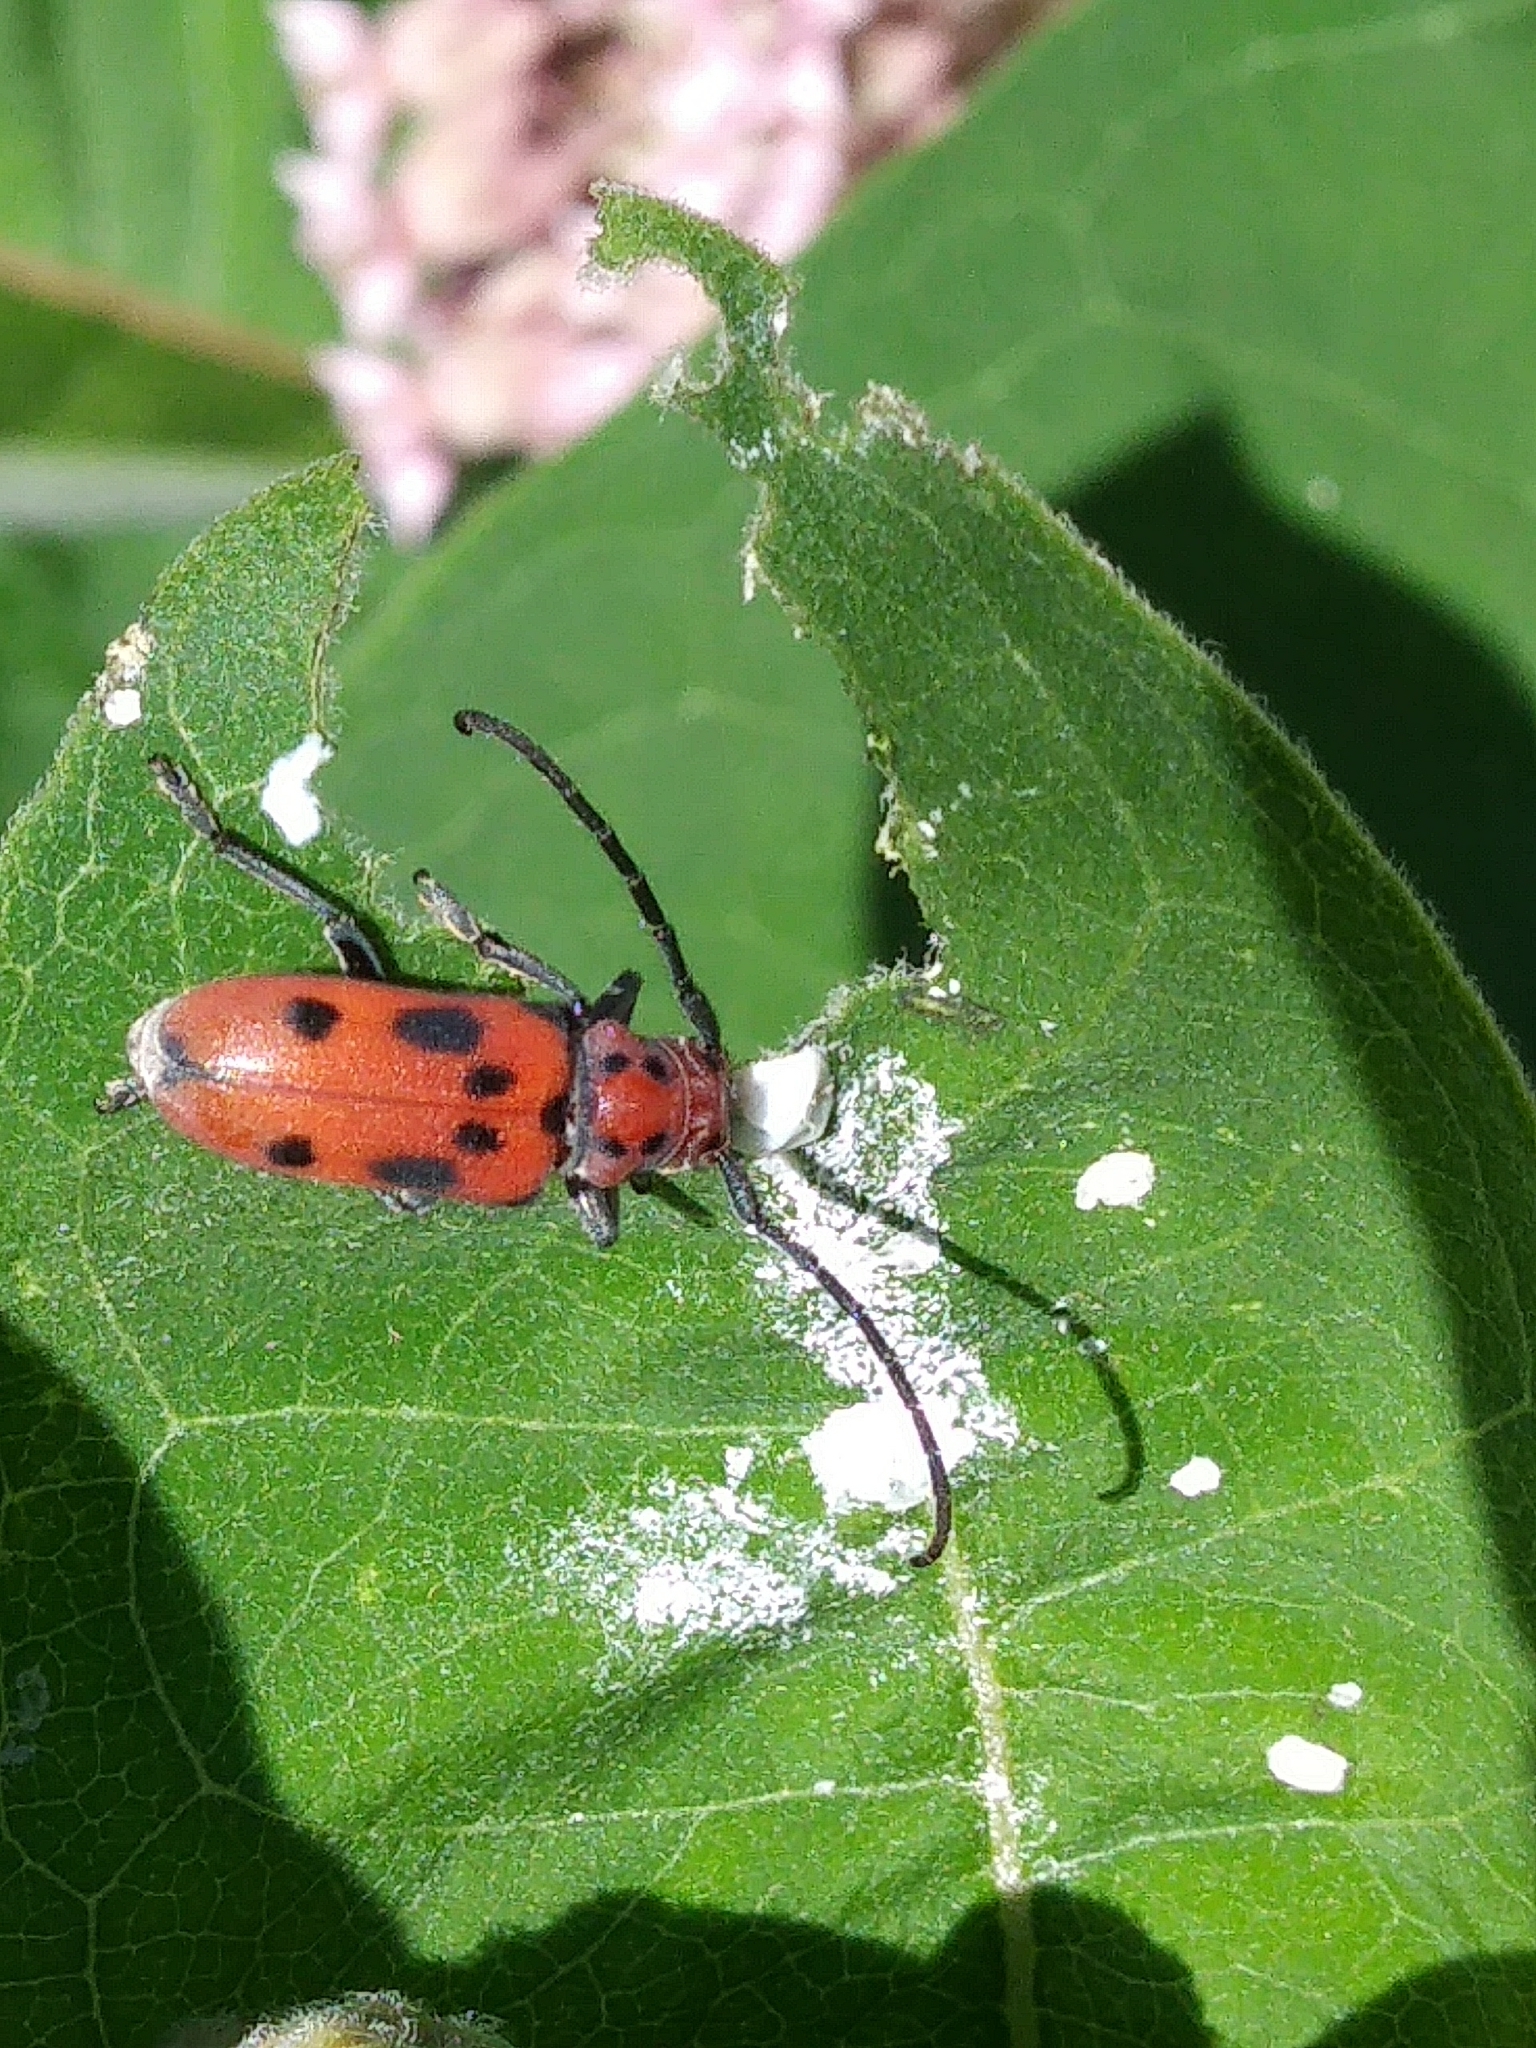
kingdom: Animalia
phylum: Arthropoda
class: Insecta
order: Coleoptera
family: Cerambycidae
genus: Tetraopes
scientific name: Tetraopes tetrophthalmus
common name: Red milkweed beetle
